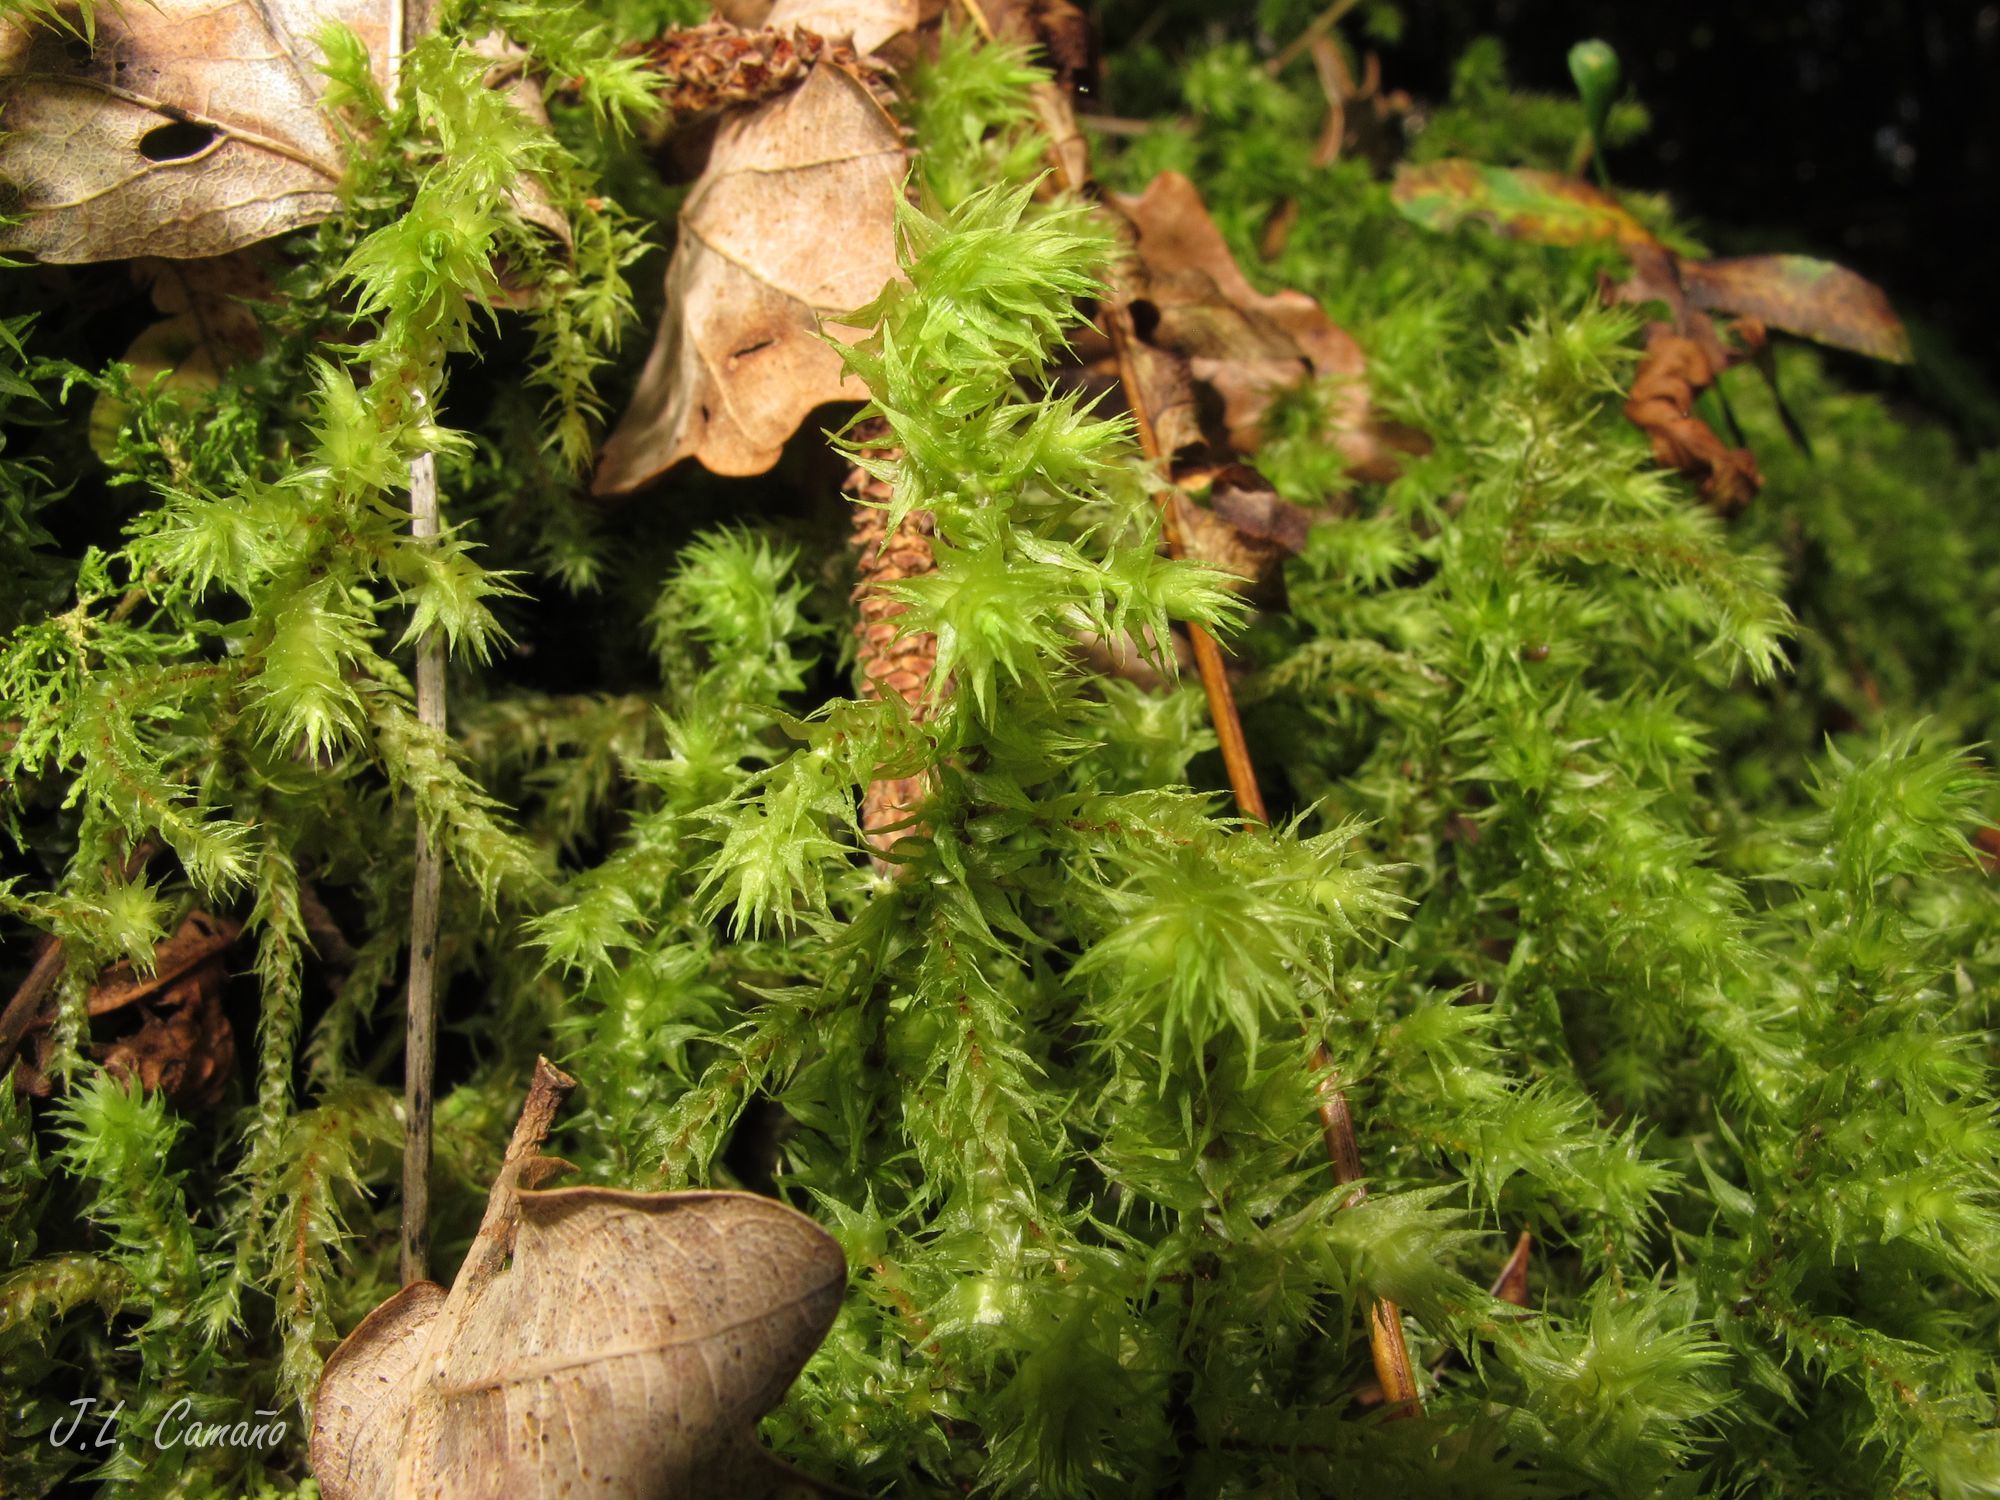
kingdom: Plantae
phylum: Bryophyta
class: Bryopsida
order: Hypnales
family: Hylocomiaceae
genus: Hylocomiadelphus
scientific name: Hylocomiadelphus triquetrus
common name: Rough goose neck moss
